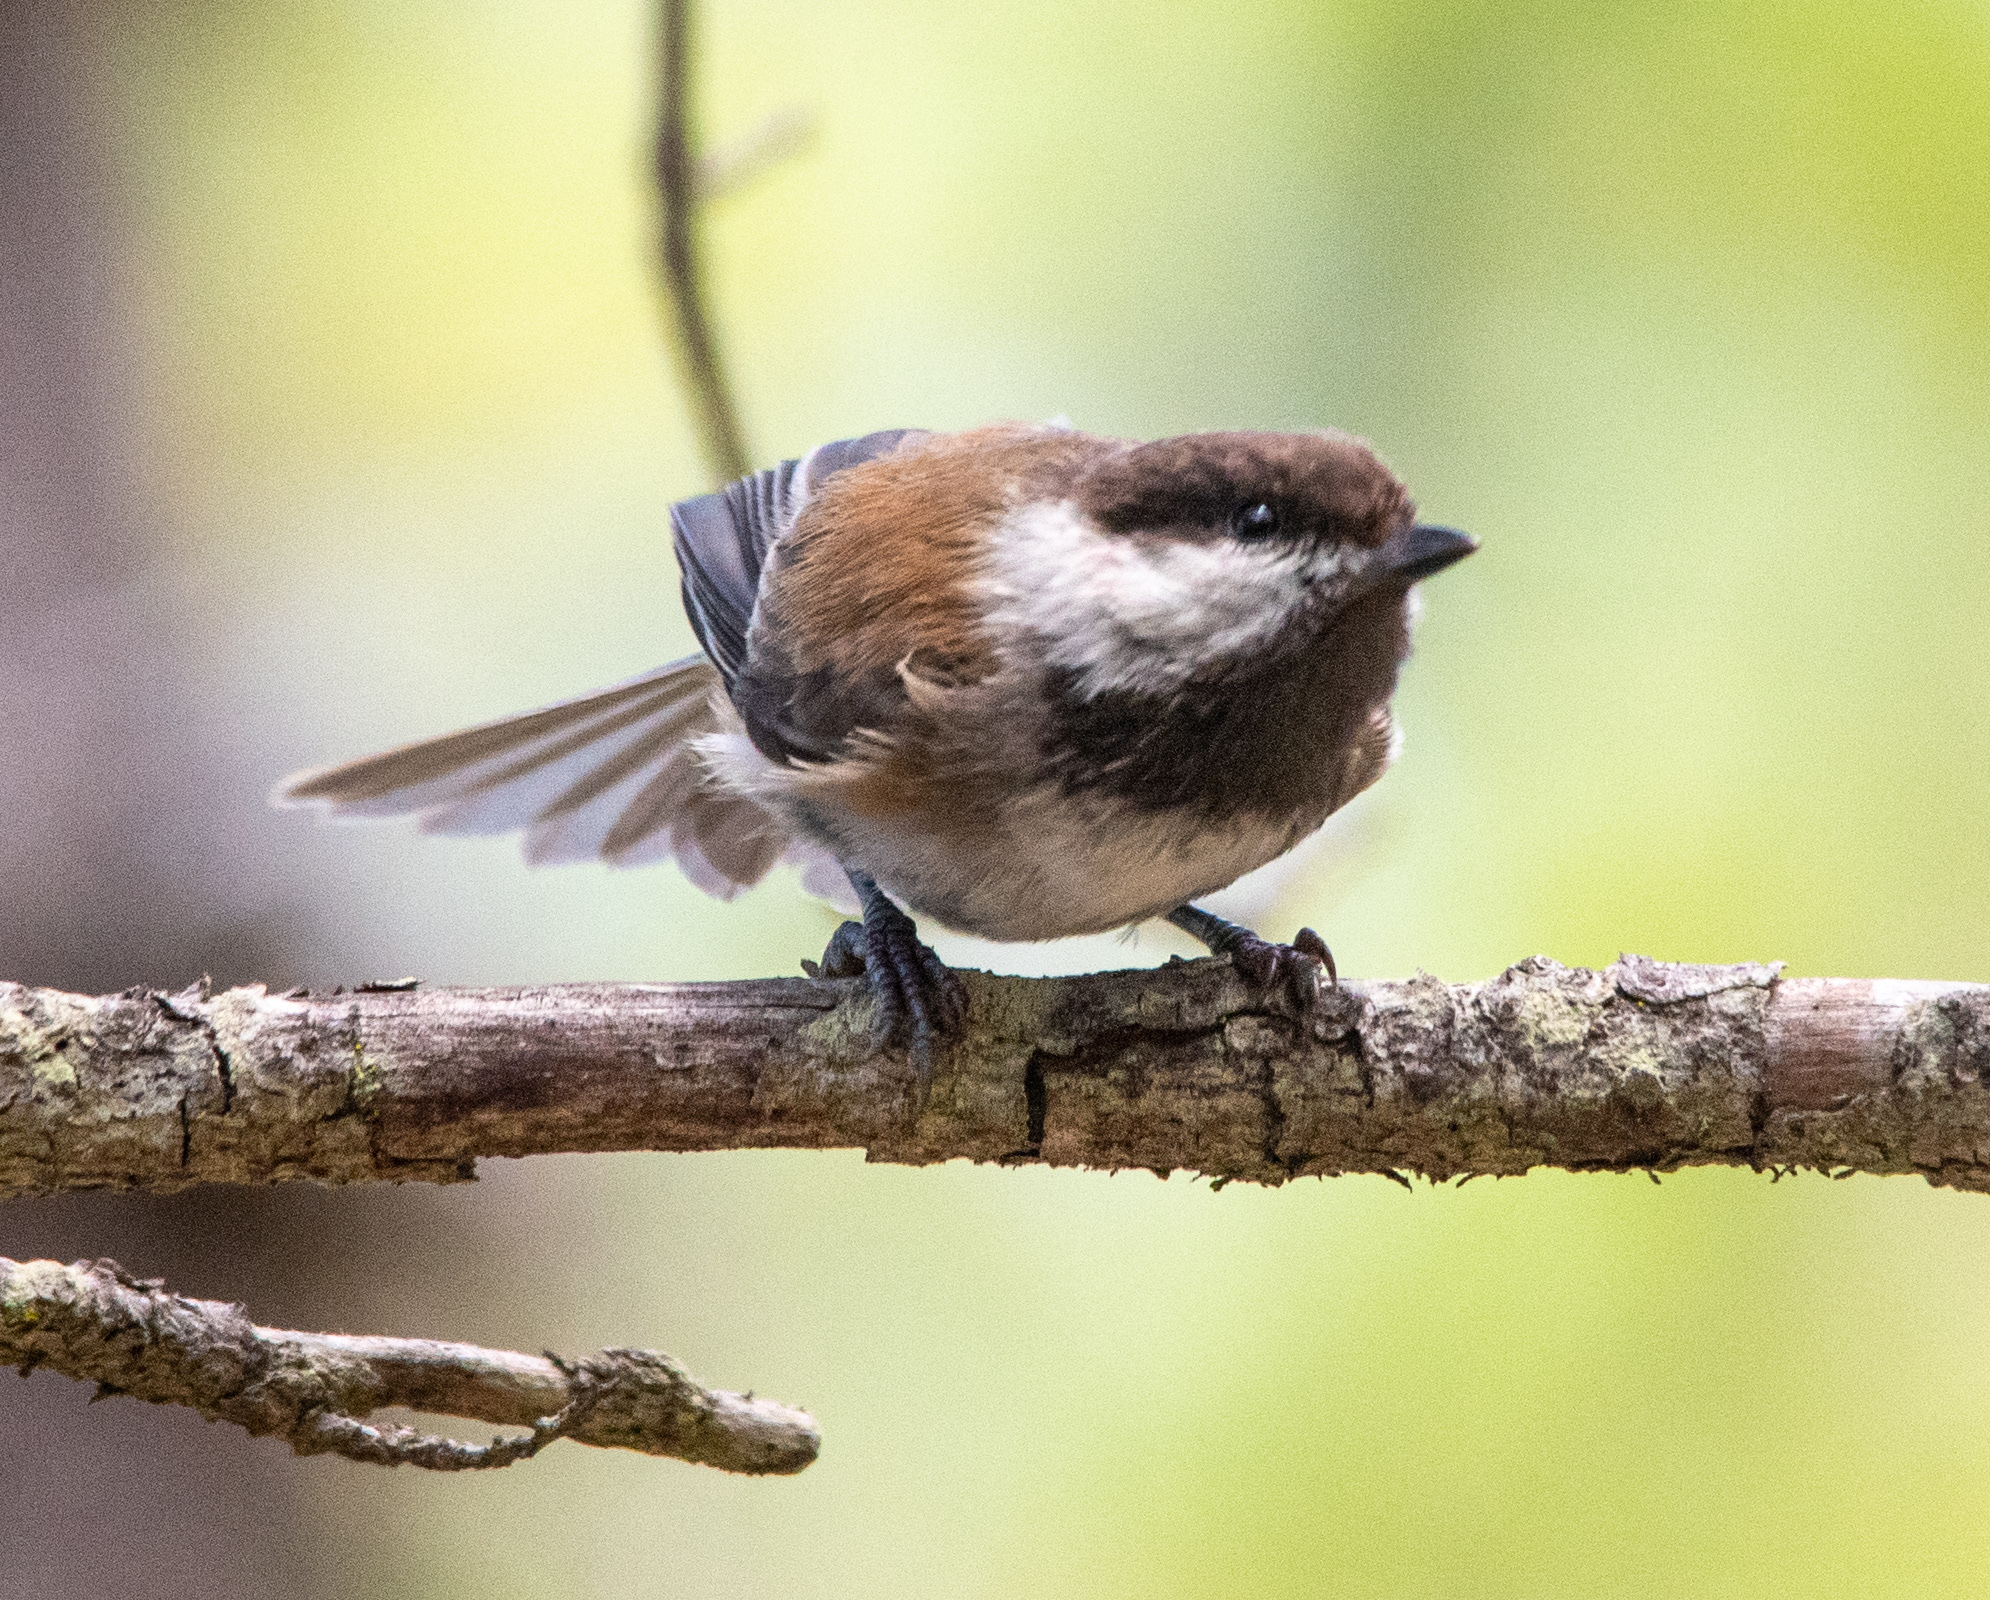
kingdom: Animalia
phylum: Chordata
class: Aves
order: Passeriformes
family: Paridae
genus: Poecile
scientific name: Poecile rufescens
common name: Chestnut-backed chickadee
